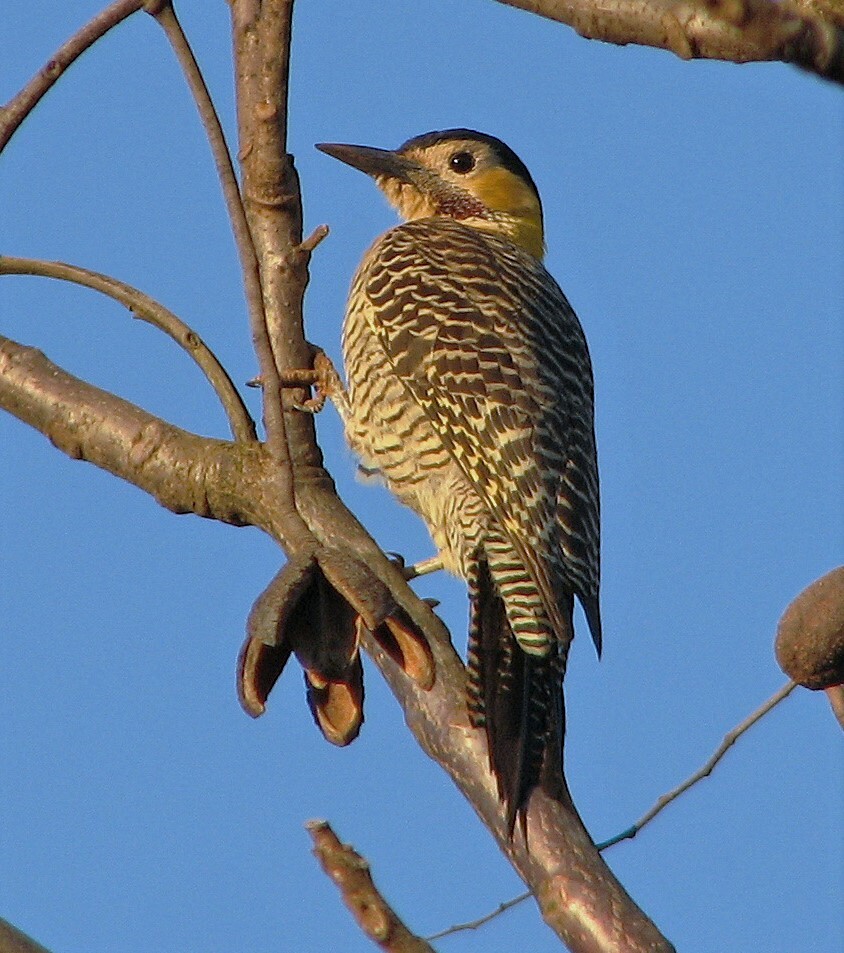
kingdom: Animalia
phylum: Chordata
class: Aves
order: Piciformes
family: Picidae
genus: Colaptes
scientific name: Colaptes campestris
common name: Campo flicker
